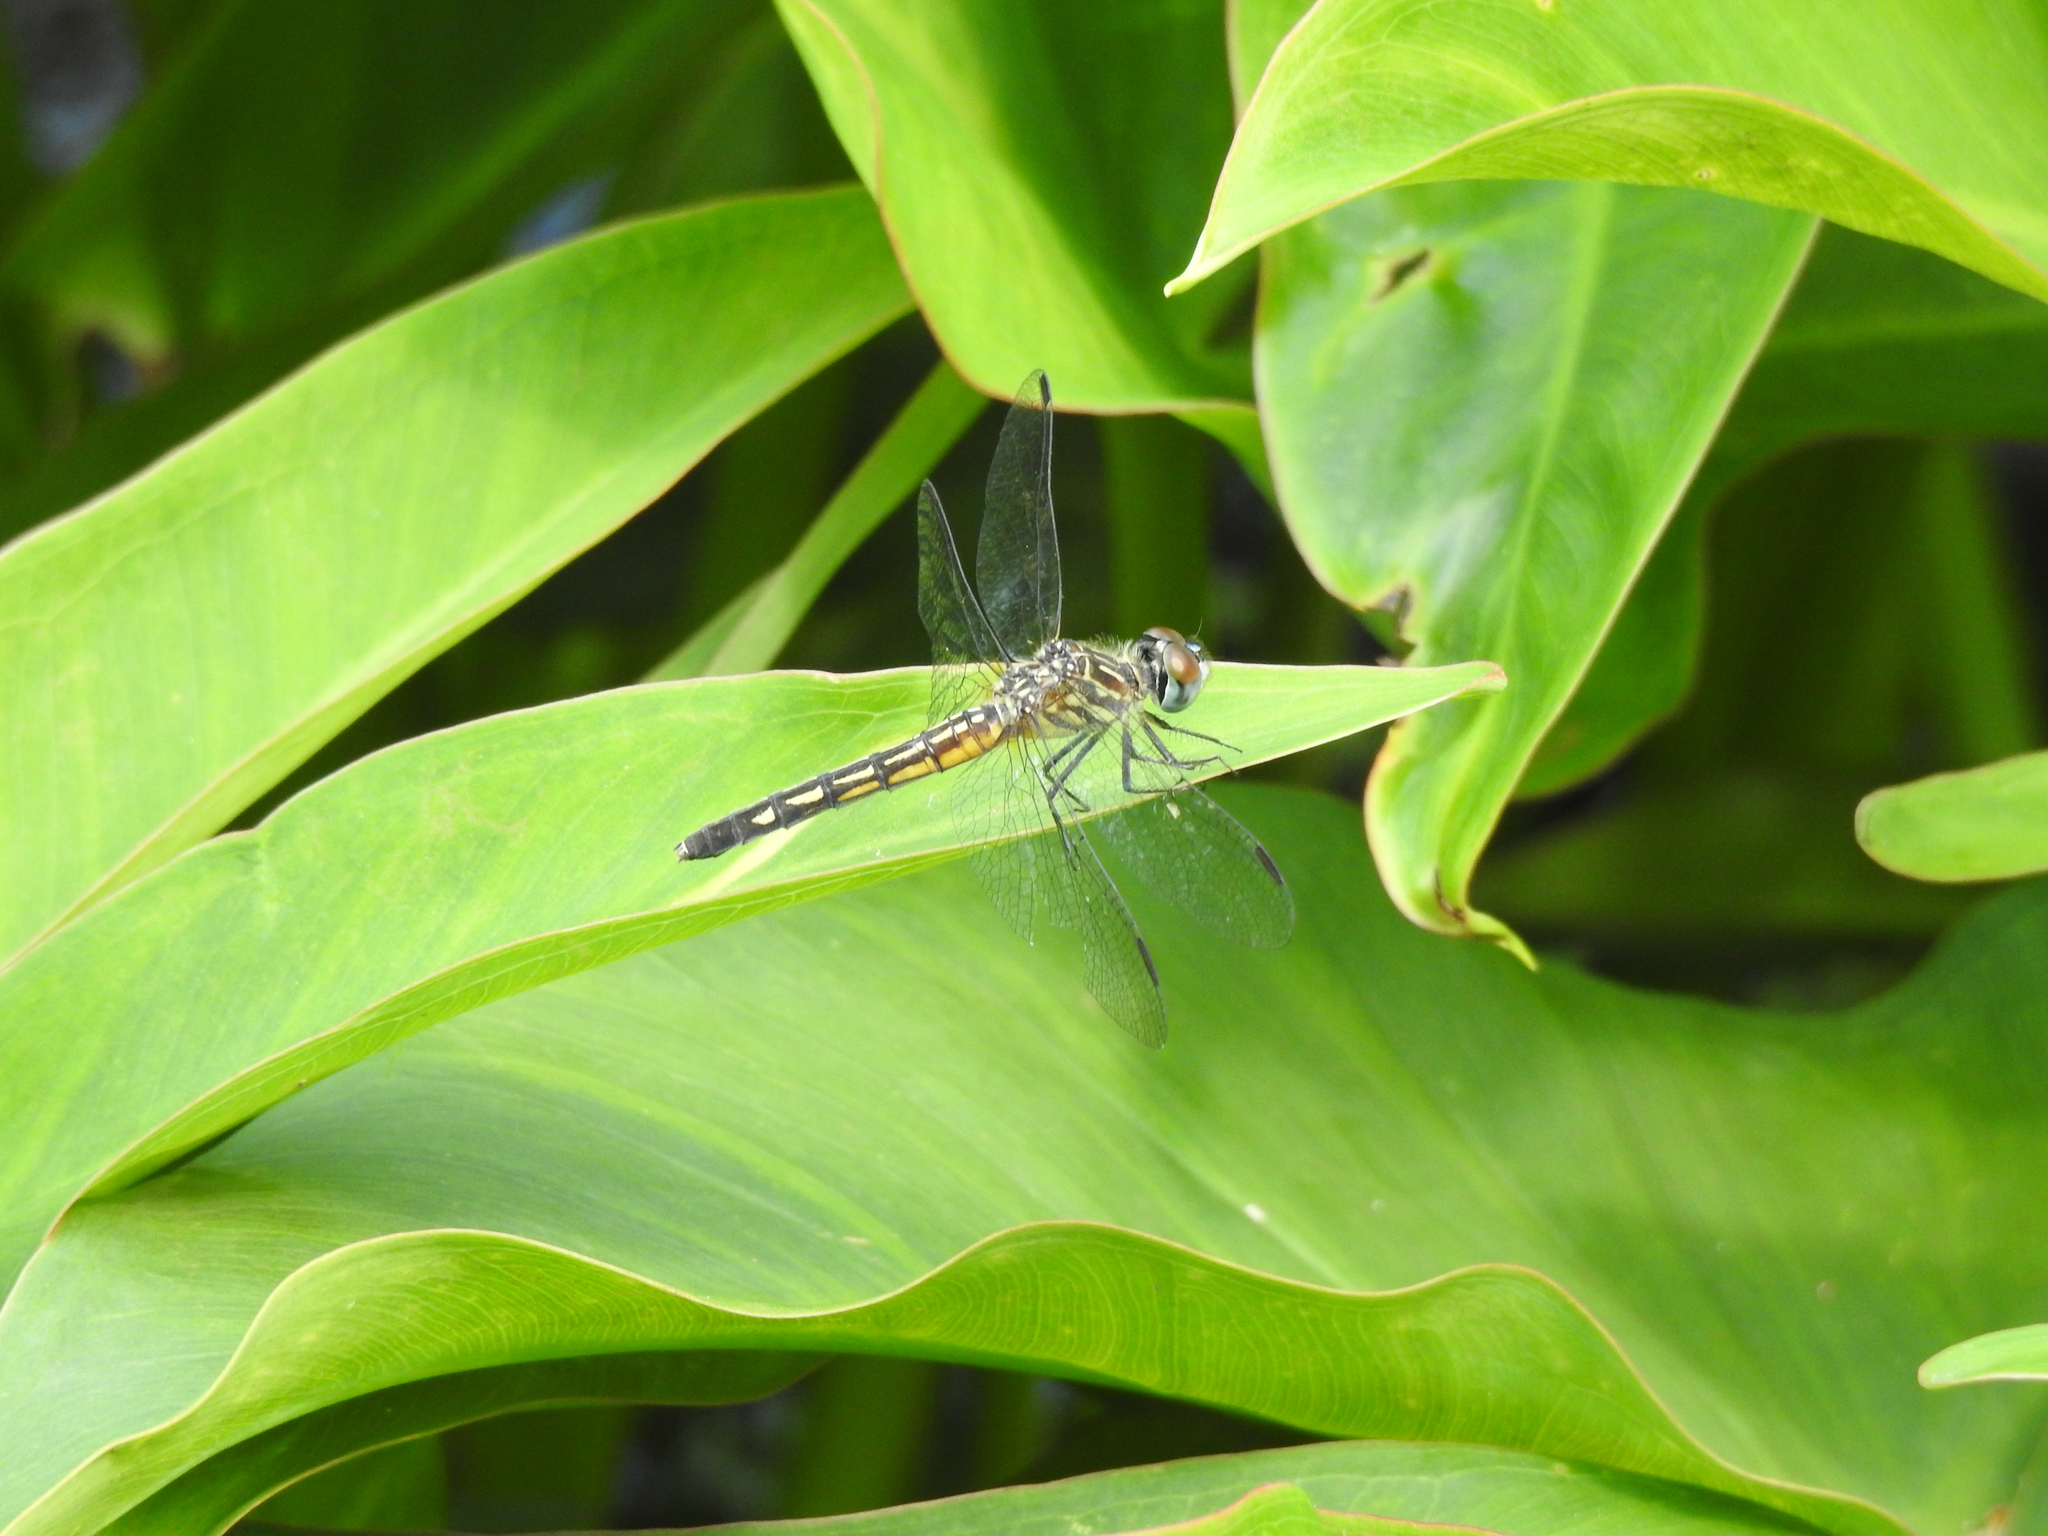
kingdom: Animalia
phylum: Arthropoda
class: Insecta
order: Odonata
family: Libellulidae
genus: Pachydiplax
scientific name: Pachydiplax longipennis
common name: Blue dasher
